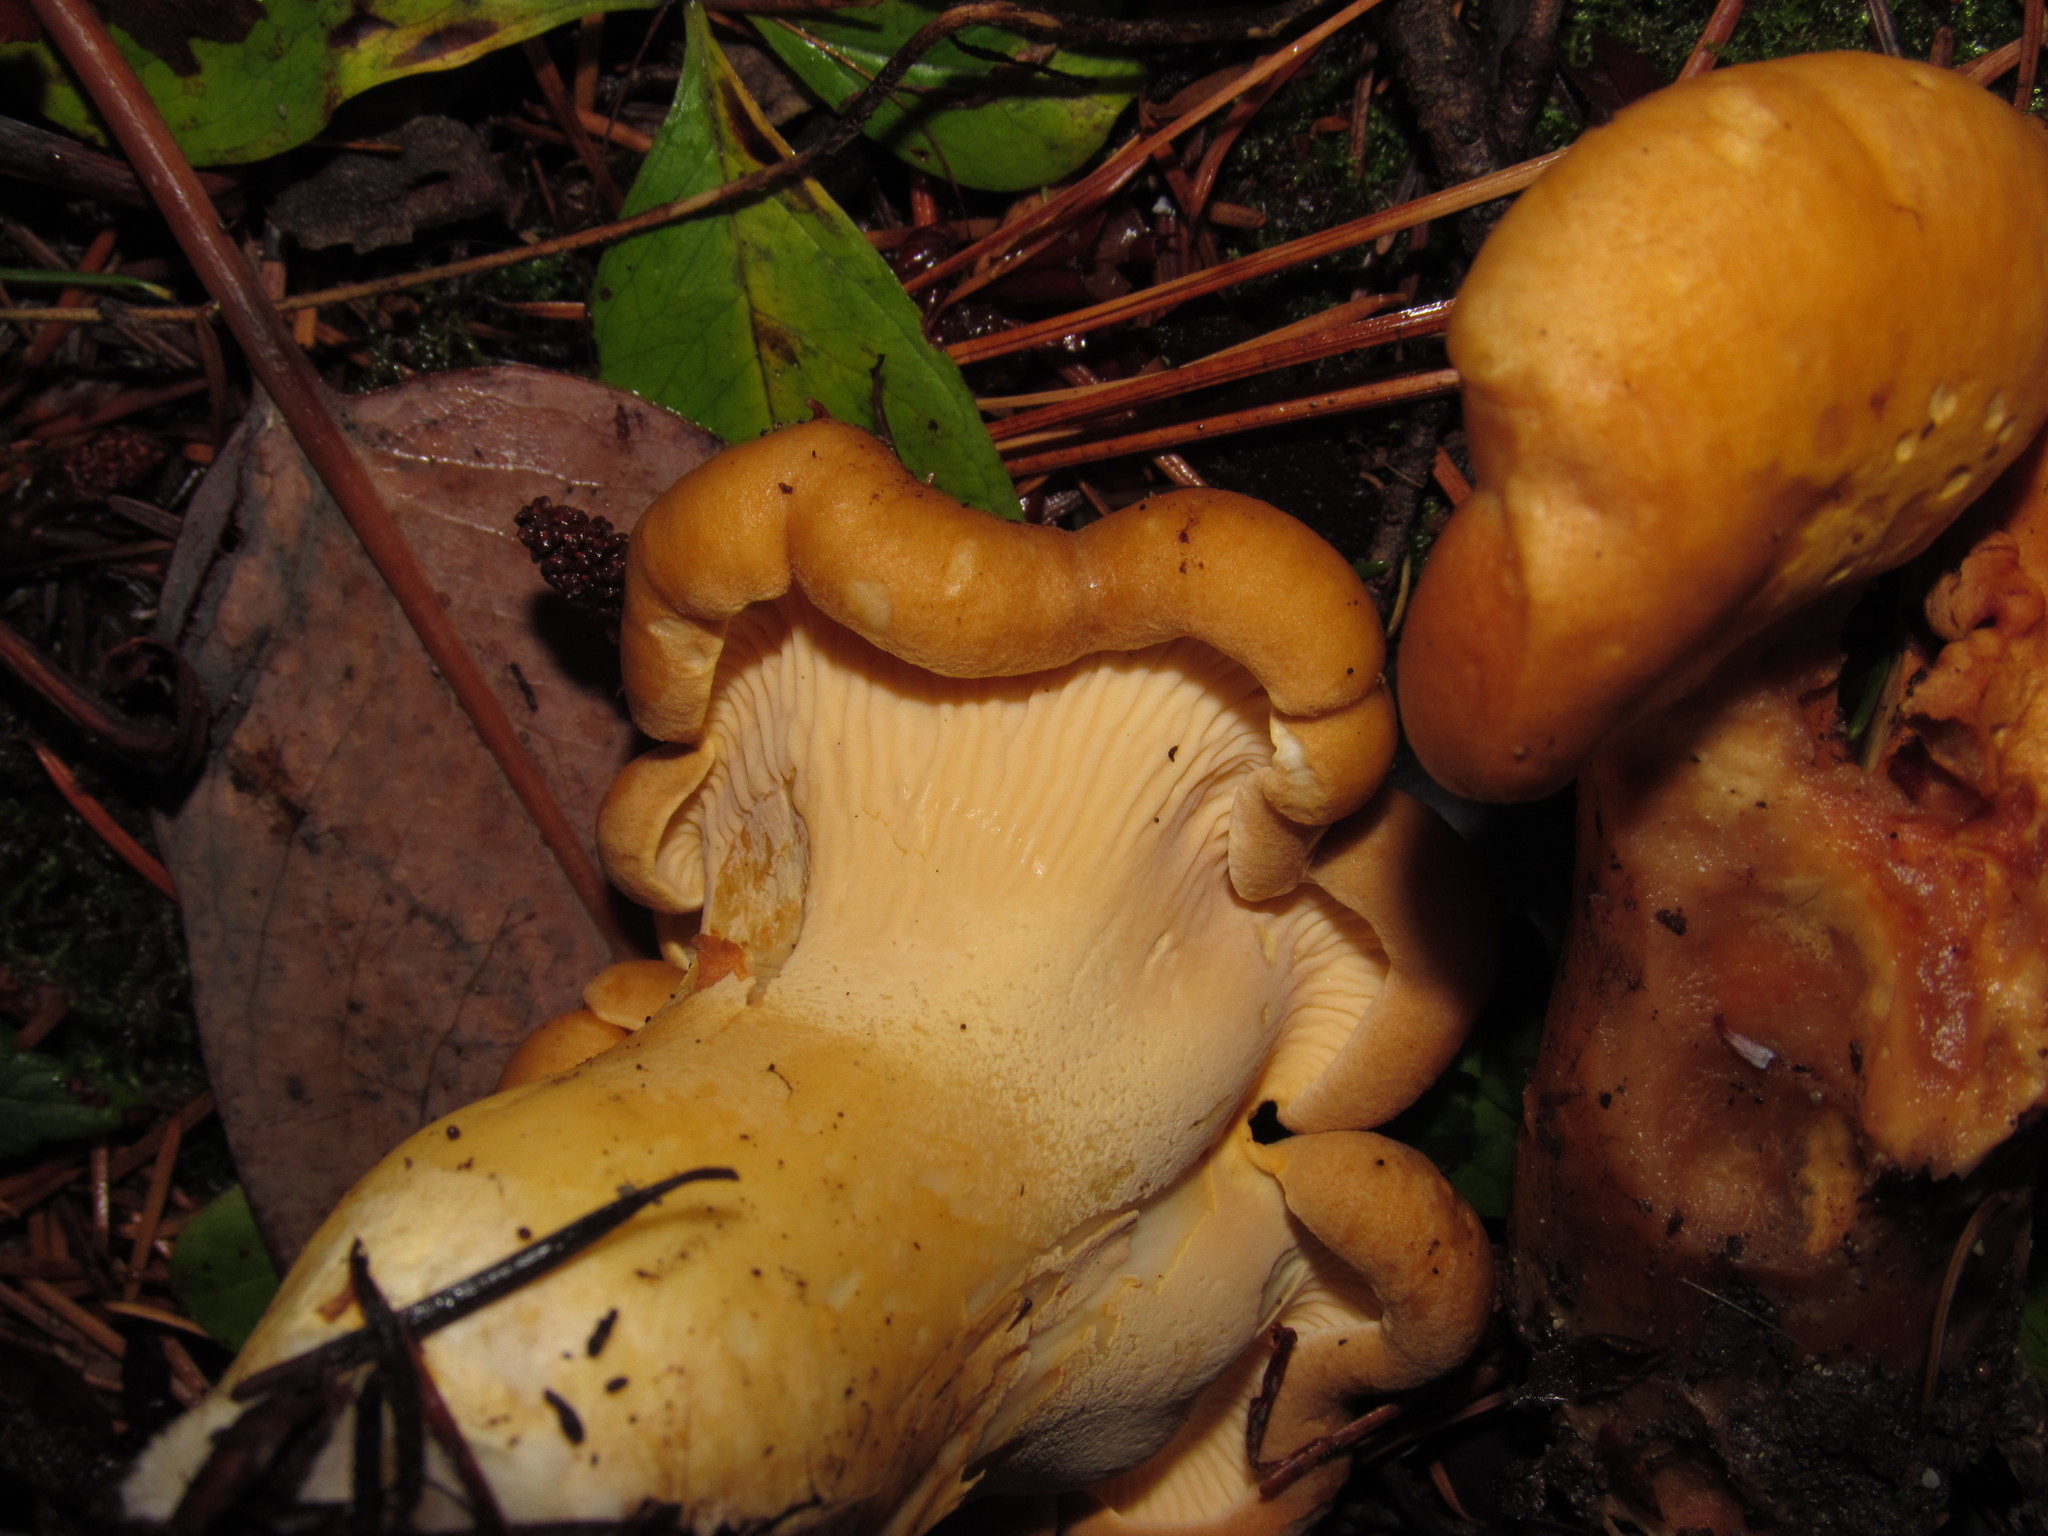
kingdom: Fungi
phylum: Basidiomycota
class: Agaricomycetes
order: Cantharellales
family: Hydnaceae
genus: Cantharellus
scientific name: Cantharellus formosus
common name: Pacific golden chanterelle
